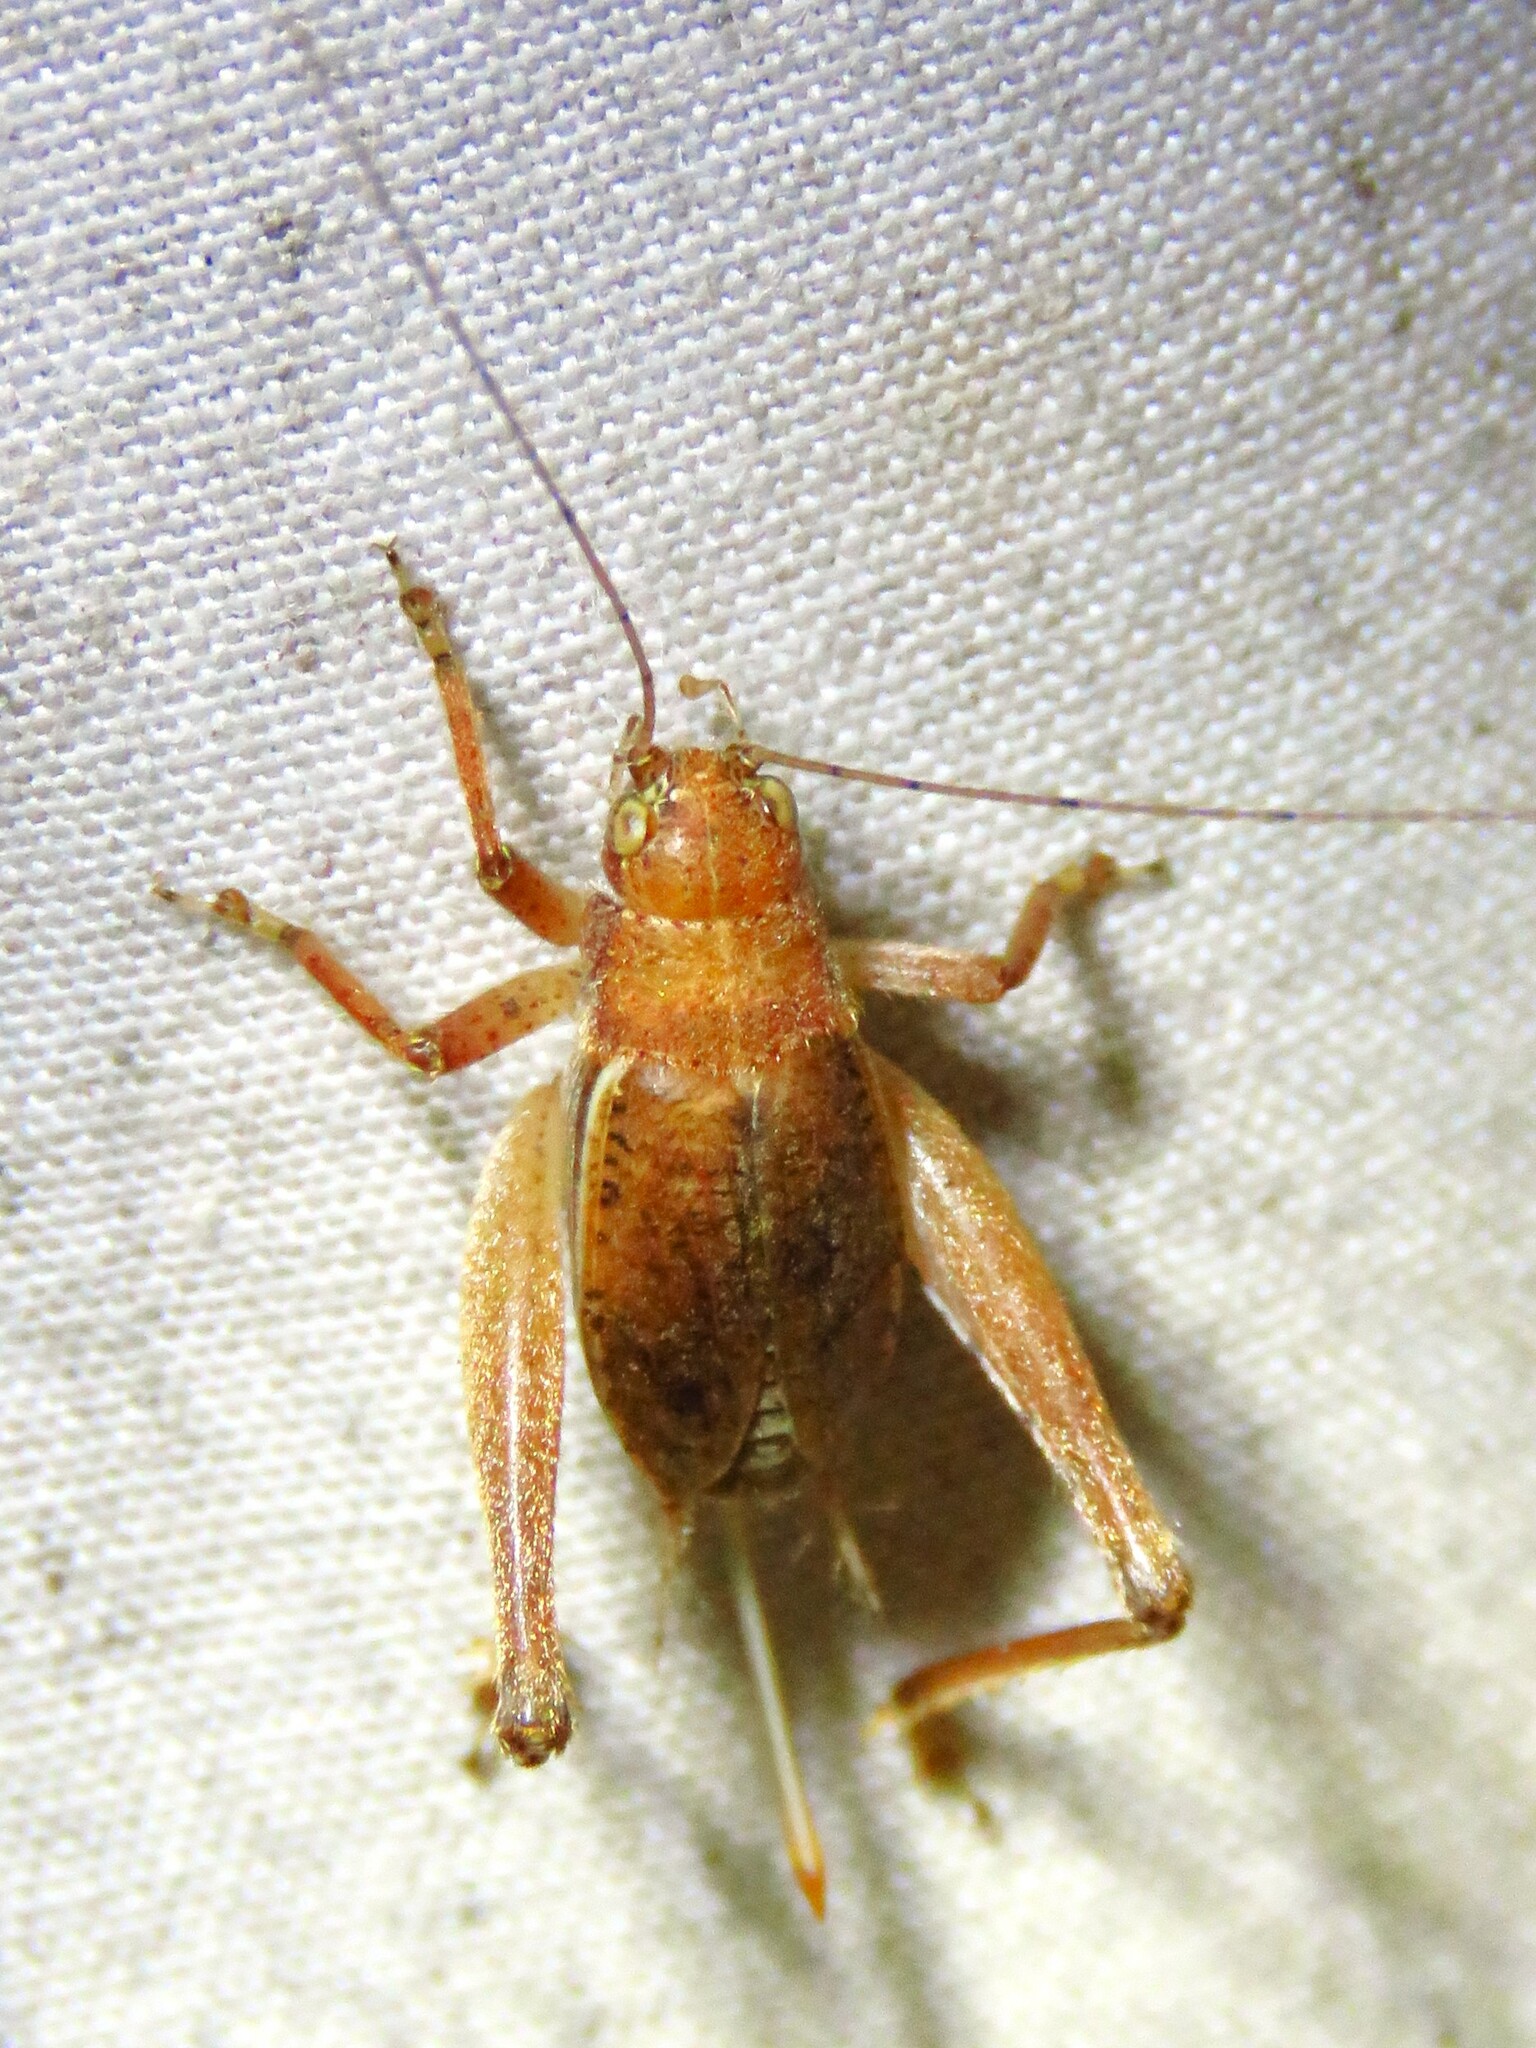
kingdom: Animalia
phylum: Arthropoda
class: Insecta
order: Orthoptera
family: Gryllidae
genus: Hapithus
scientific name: Hapithus agitator
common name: Restless bush cricket
